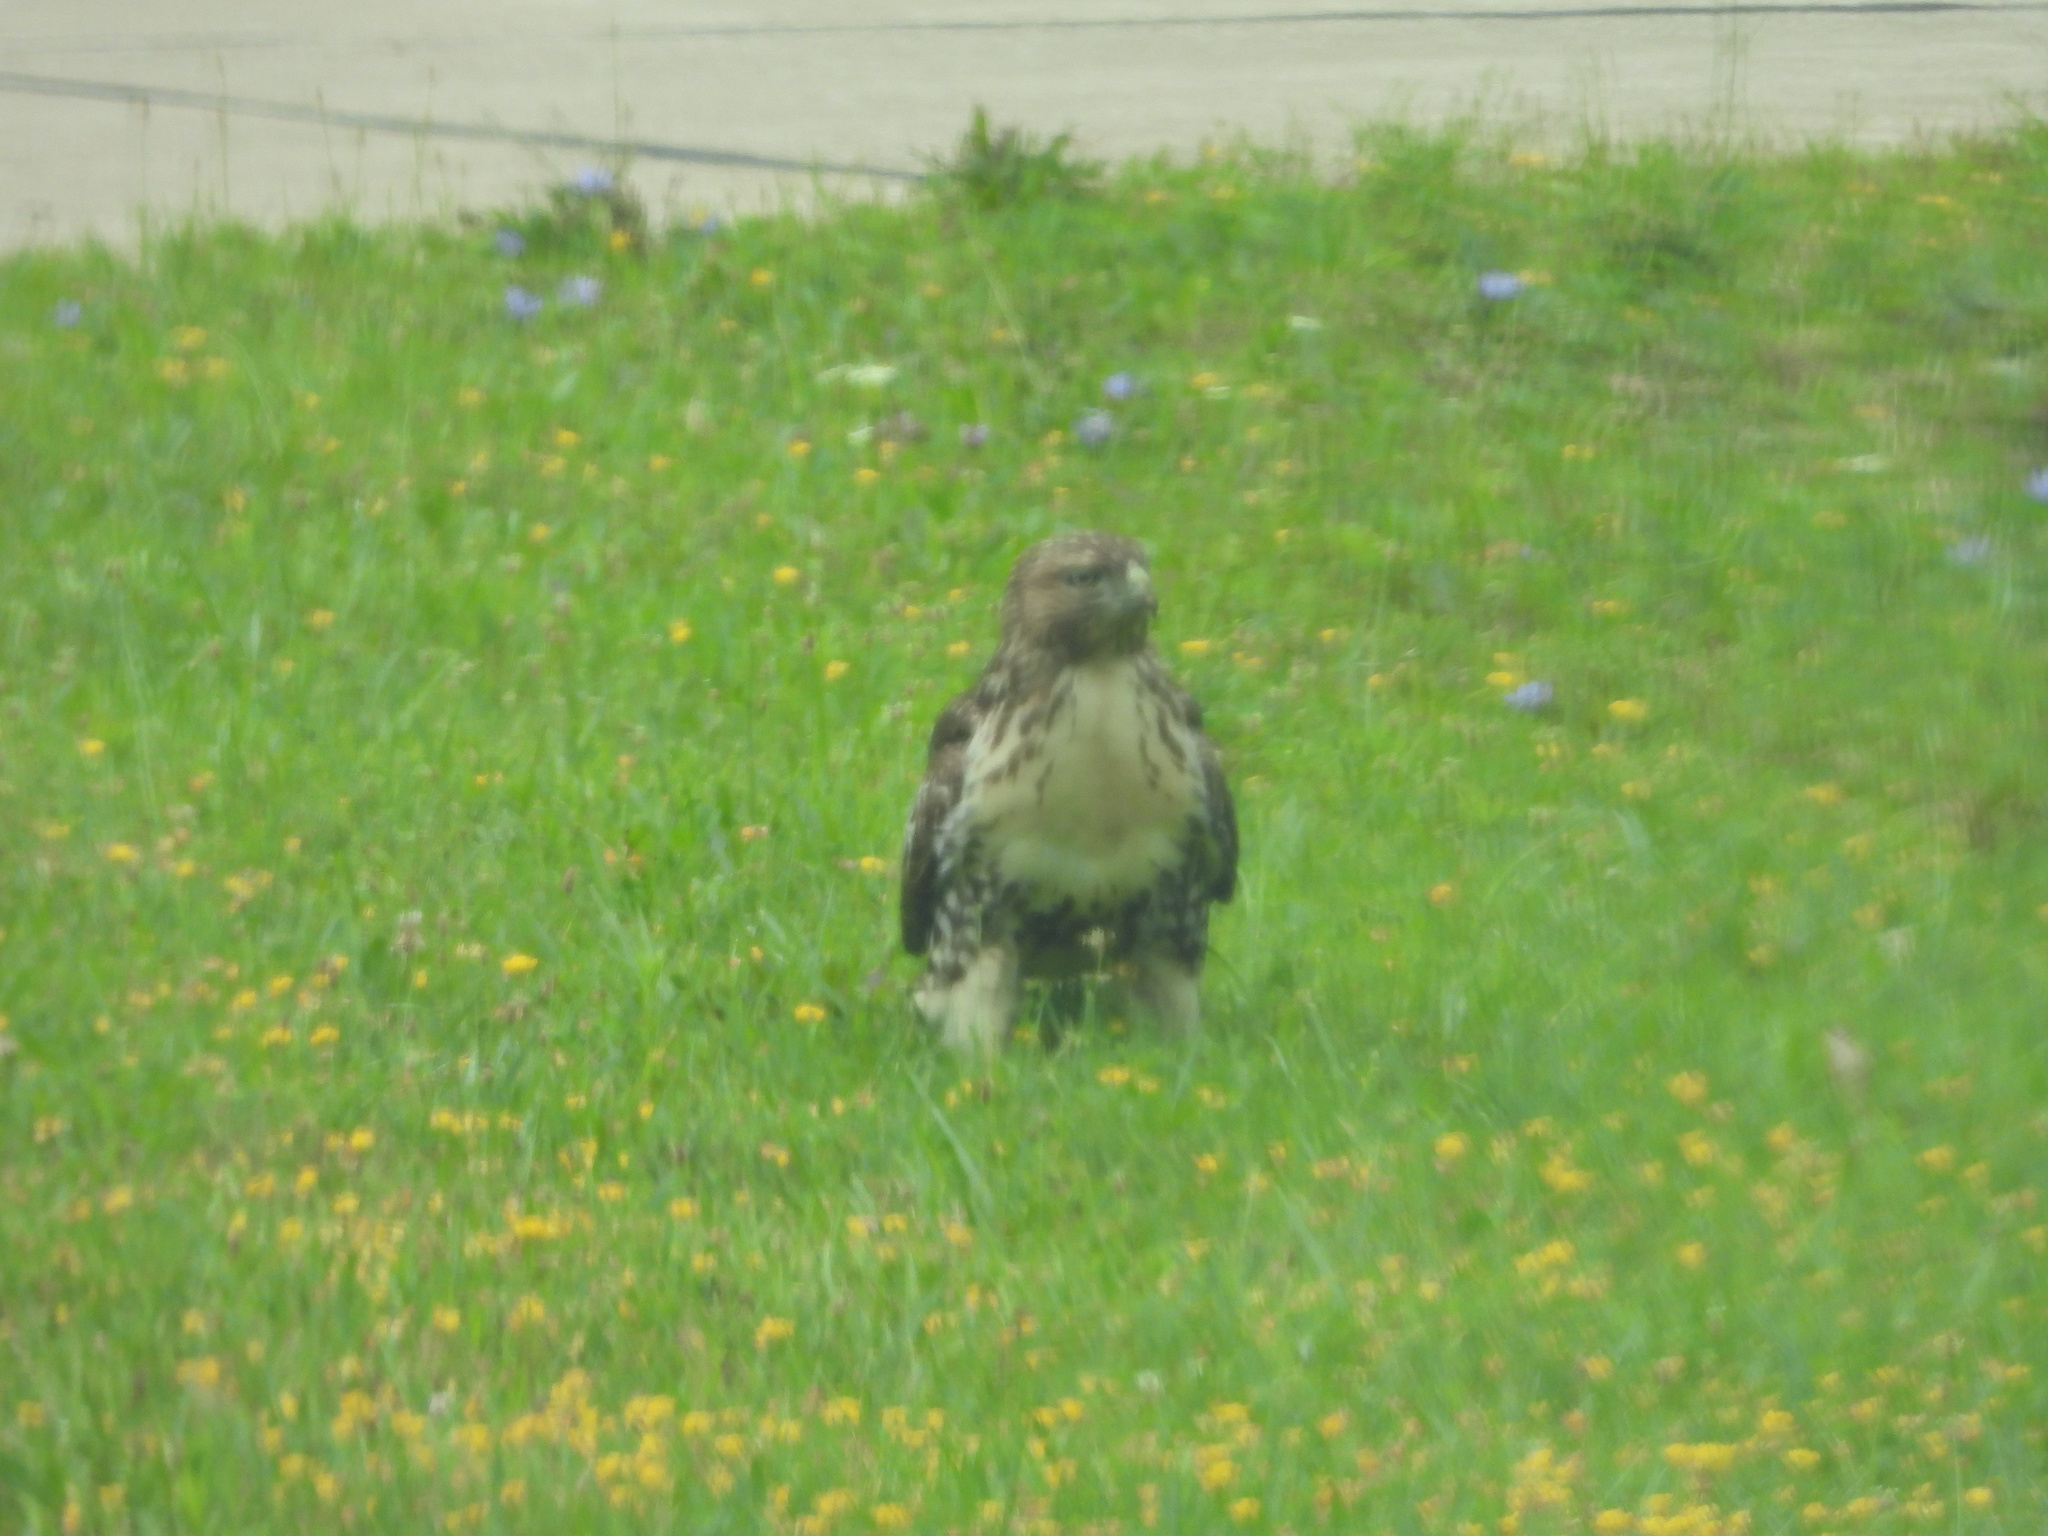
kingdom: Animalia
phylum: Chordata
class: Aves
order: Accipitriformes
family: Accipitridae
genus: Buteo
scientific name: Buteo jamaicensis
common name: Red-tailed hawk
